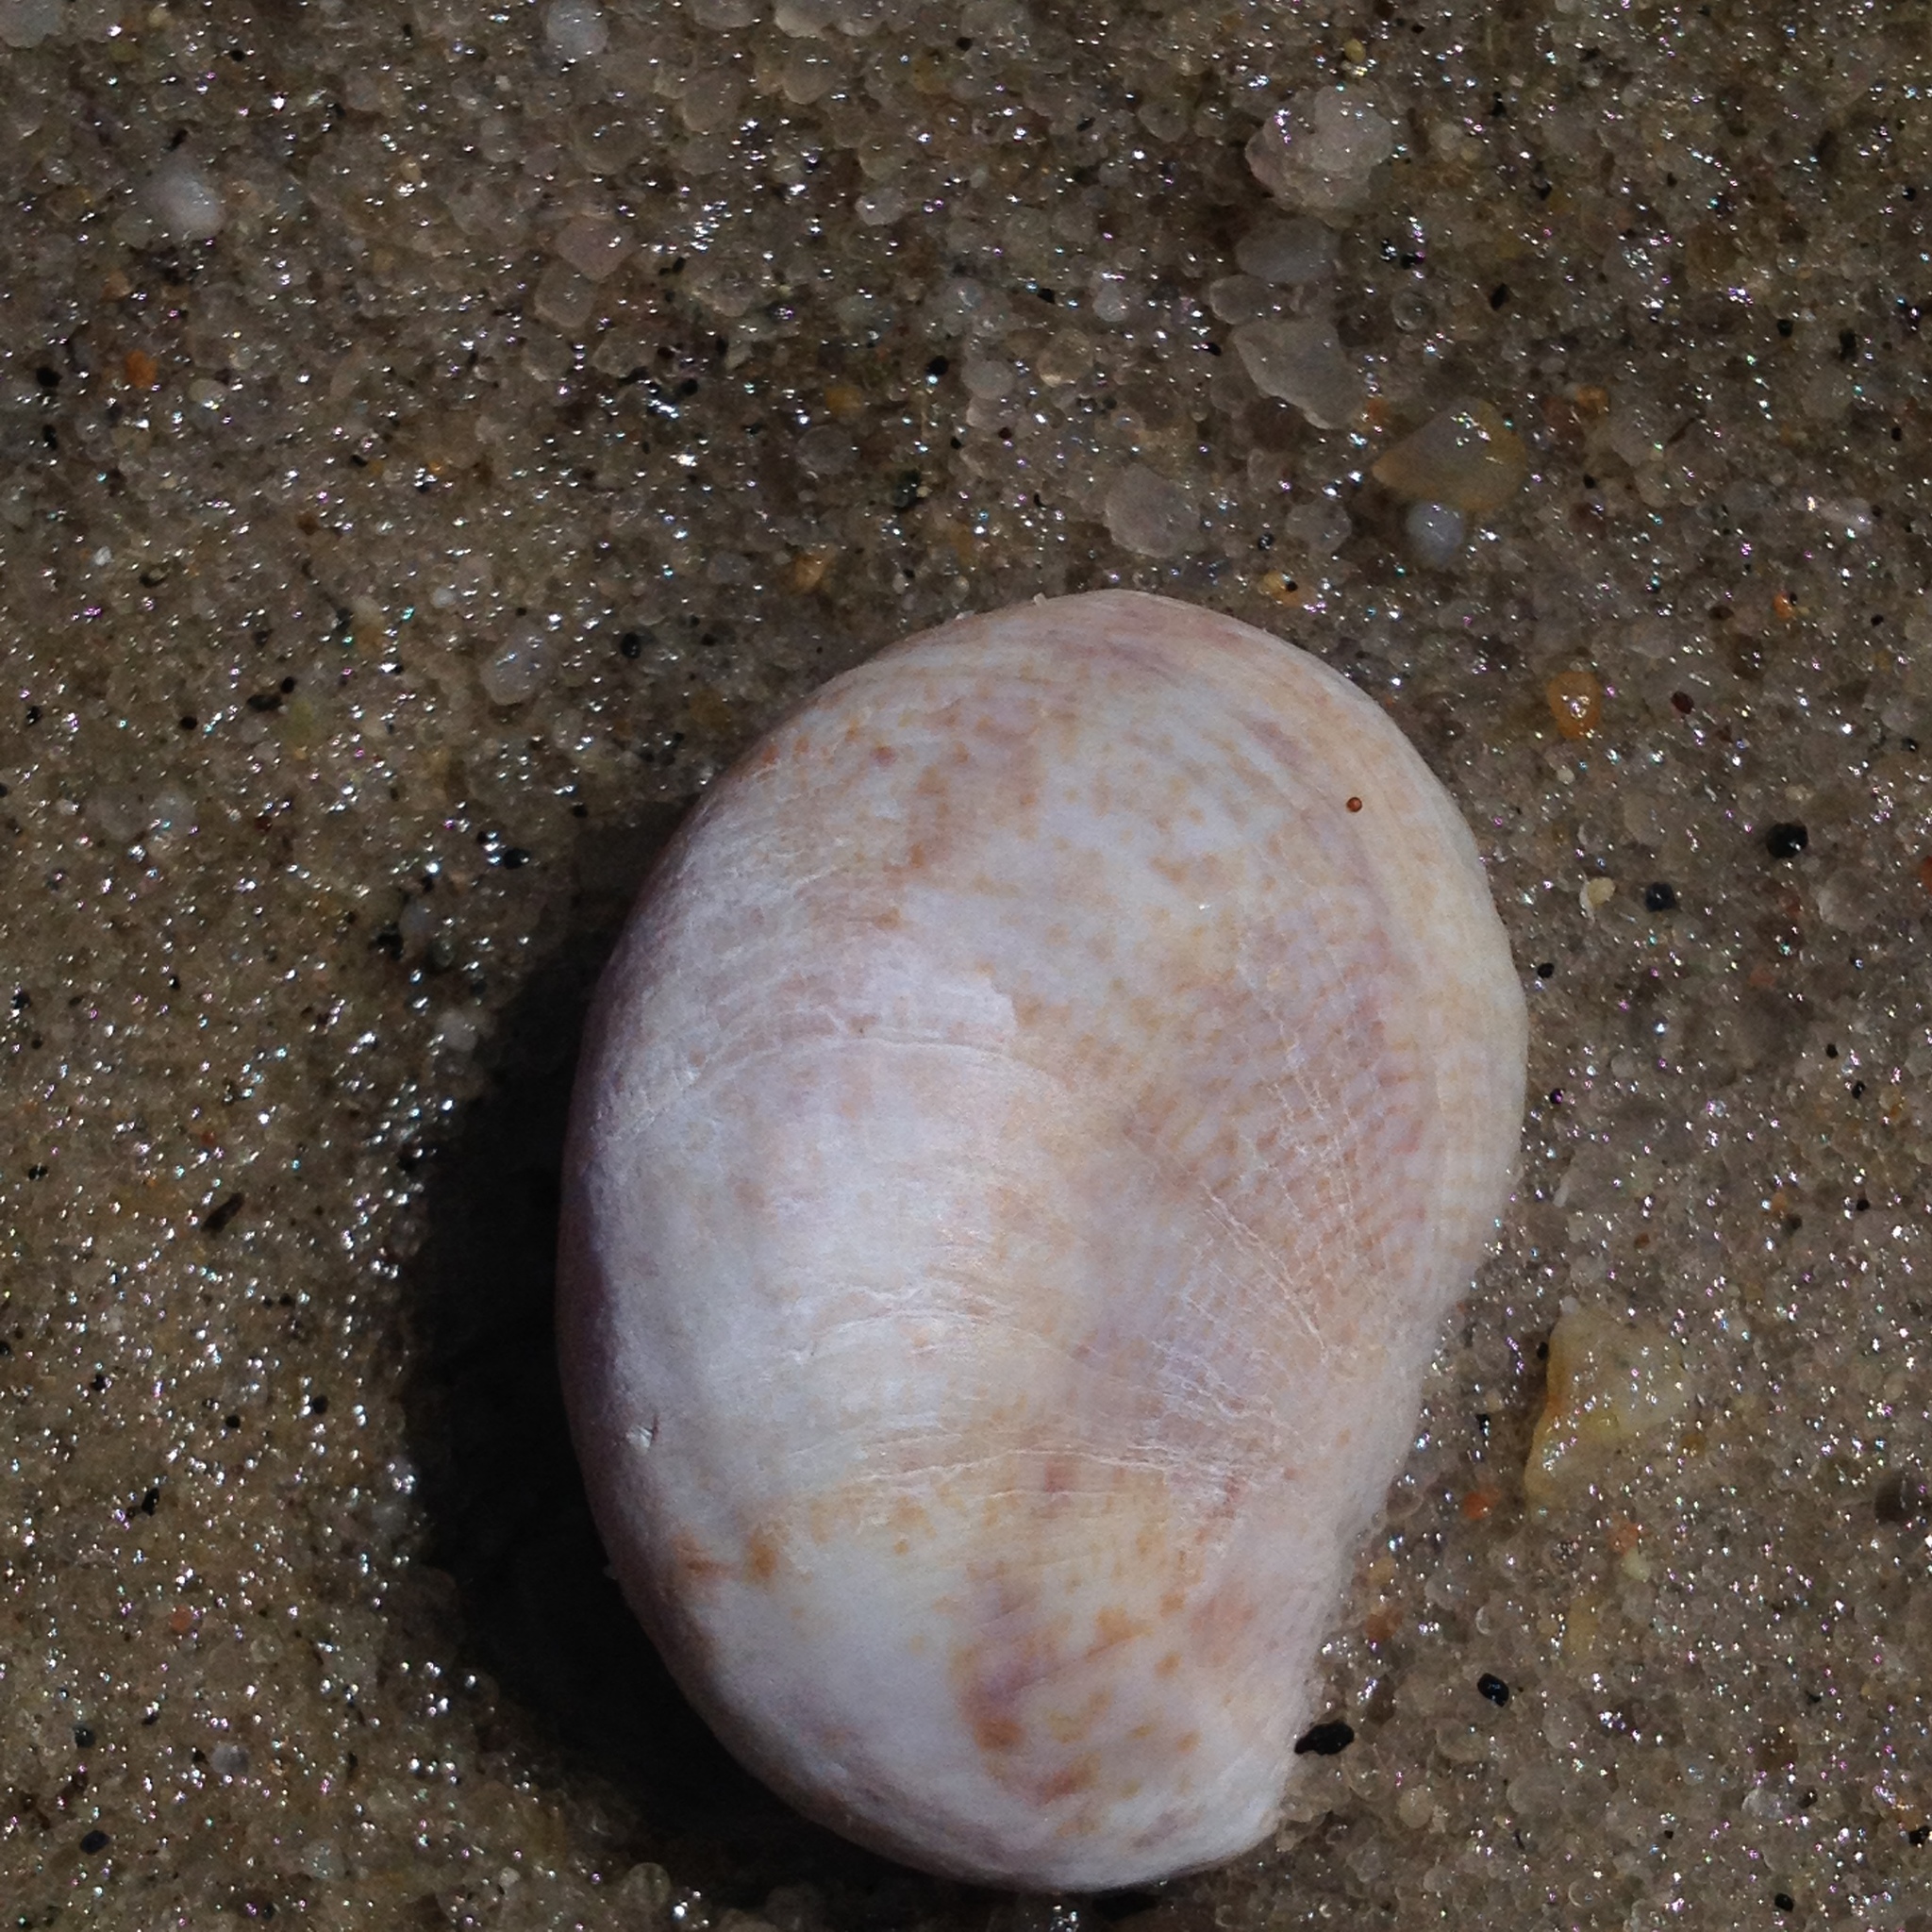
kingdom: Animalia
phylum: Mollusca
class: Gastropoda
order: Littorinimorpha
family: Calyptraeidae
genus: Crepidula
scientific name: Crepidula fornicata
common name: Slipper limpet
